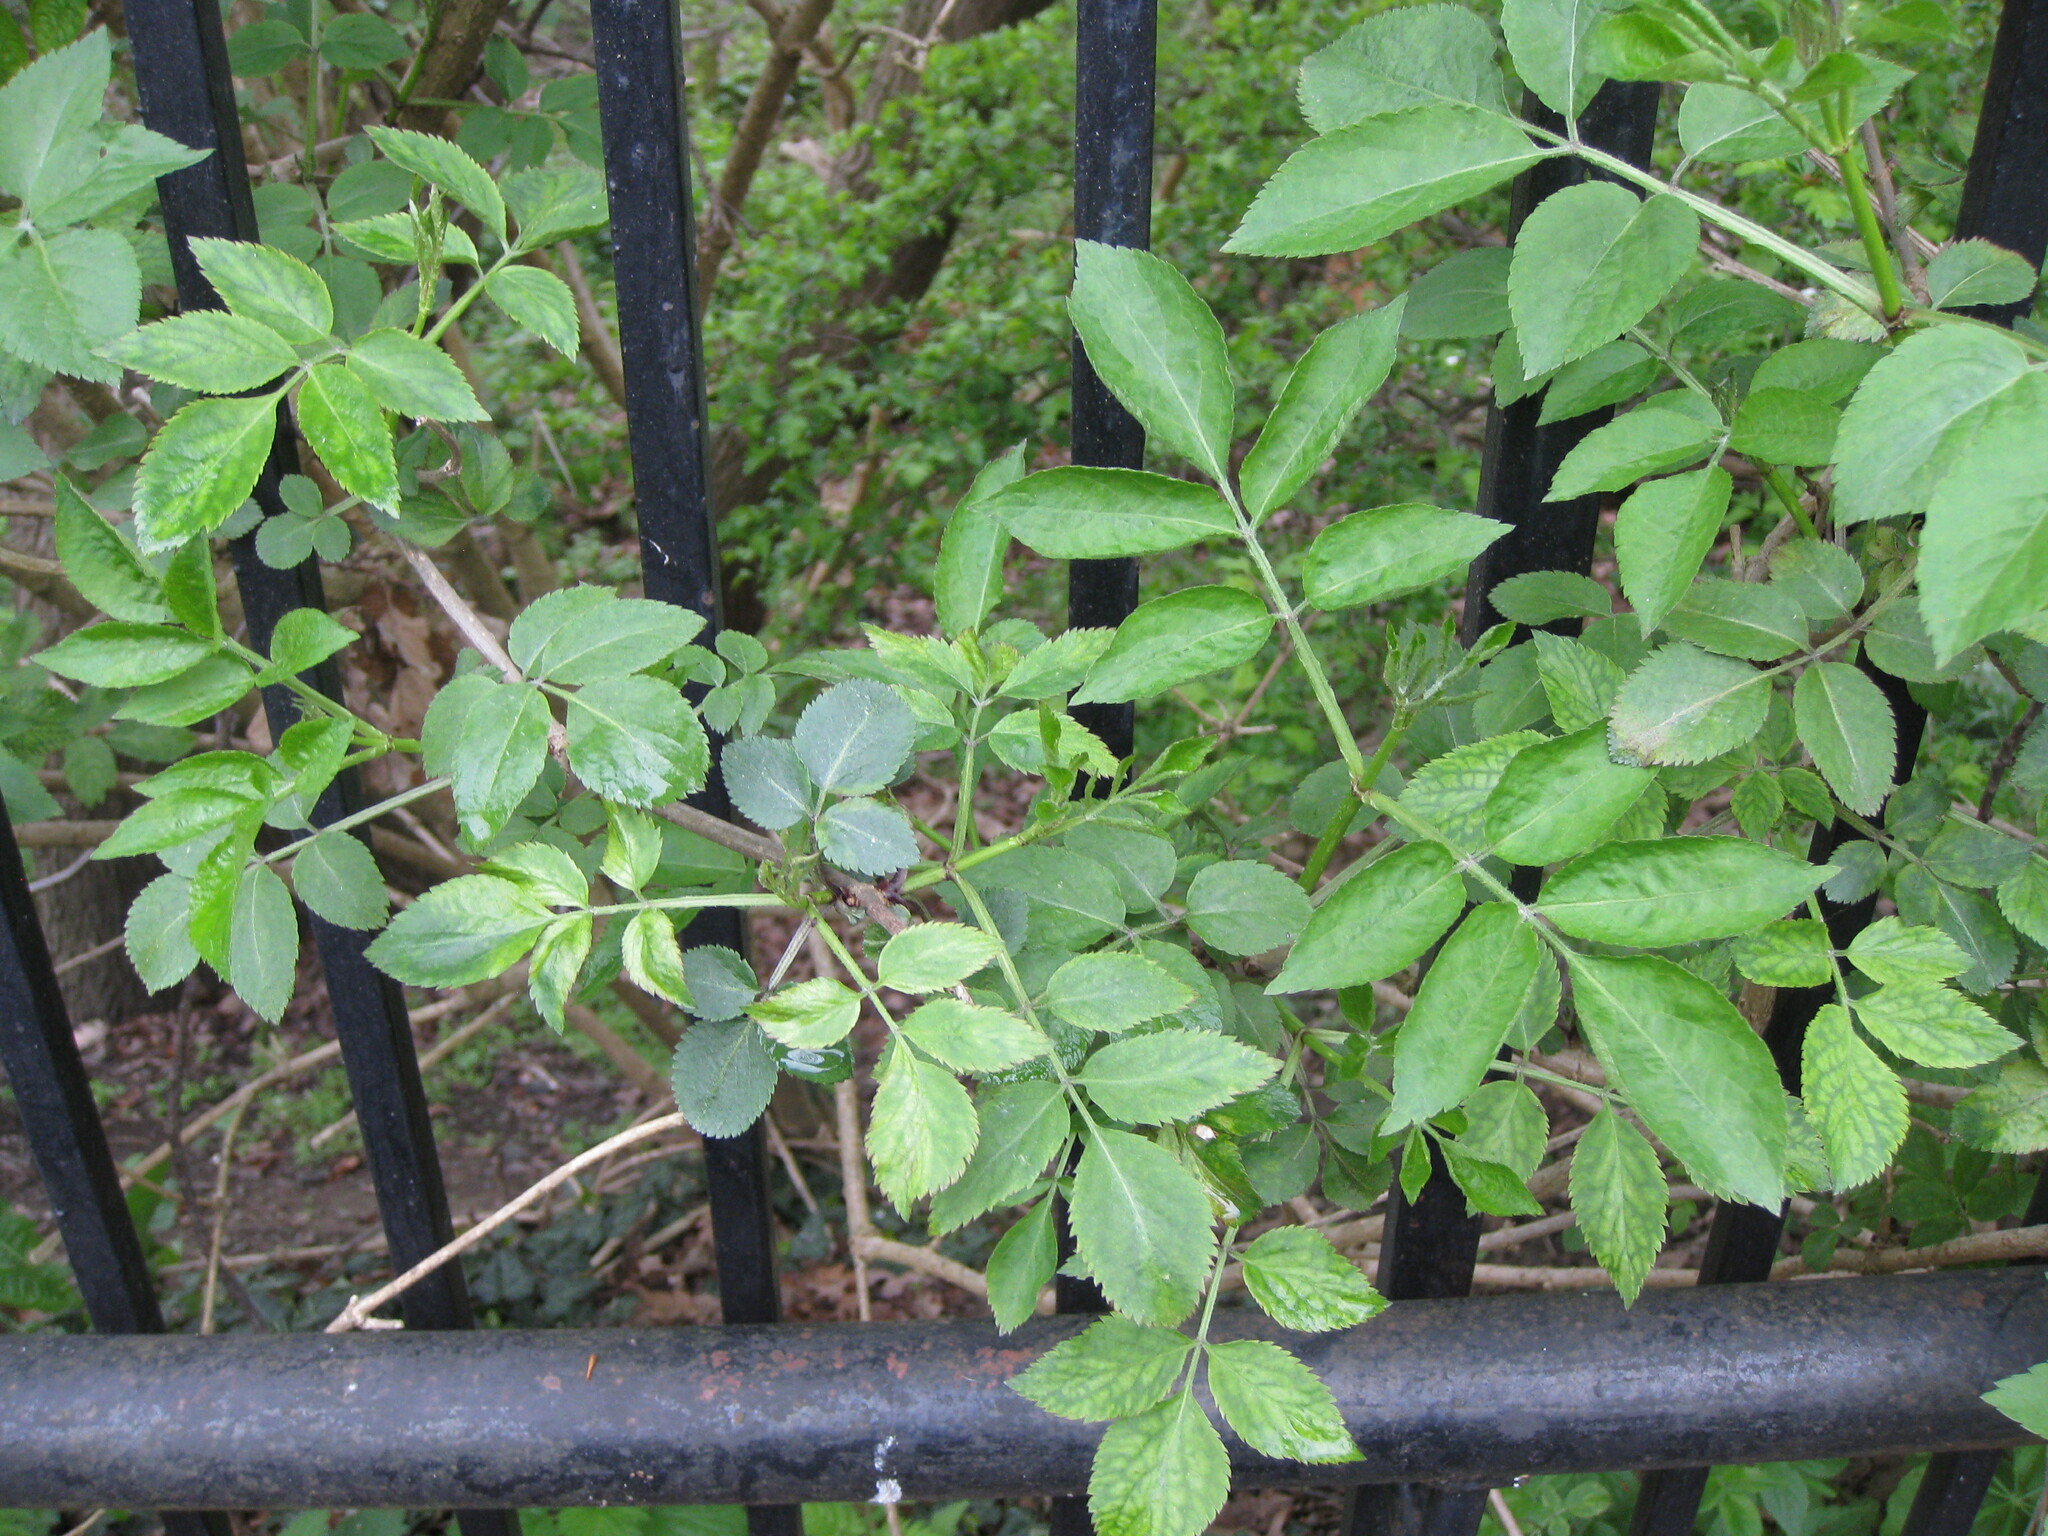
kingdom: Plantae
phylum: Tracheophyta
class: Magnoliopsida
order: Dipsacales
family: Viburnaceae
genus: Sambucus
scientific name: Sambucus nigra
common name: Elder
